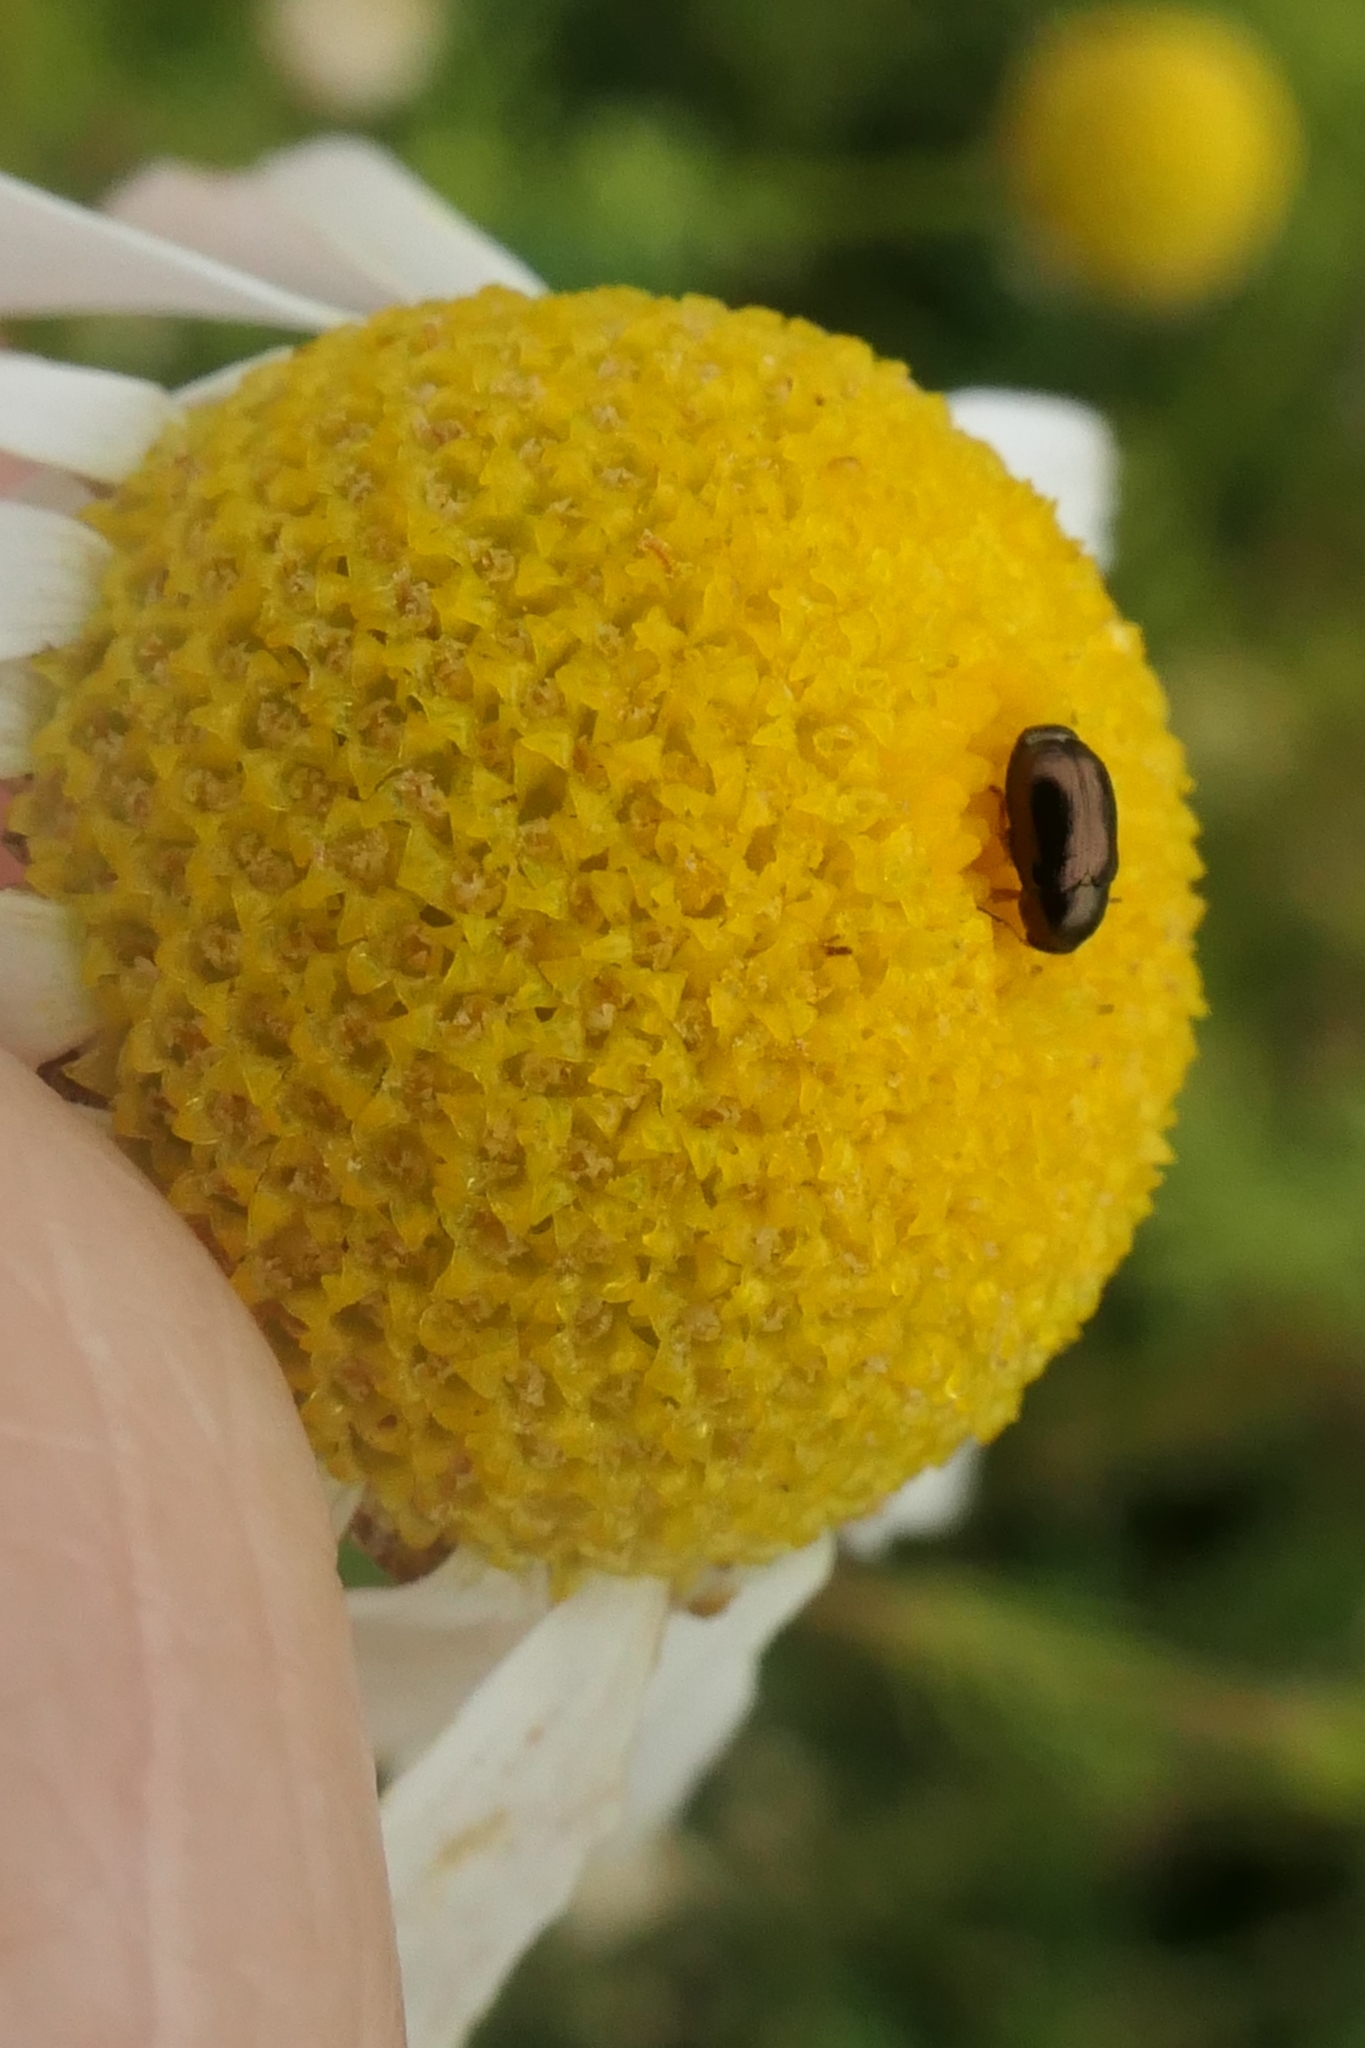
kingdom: Animalia
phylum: Arthropoda
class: Insecta
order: Coleoptera
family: Chrysomelidae
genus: Diachus
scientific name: Diachus auratus
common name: Bronze leaf beetle
